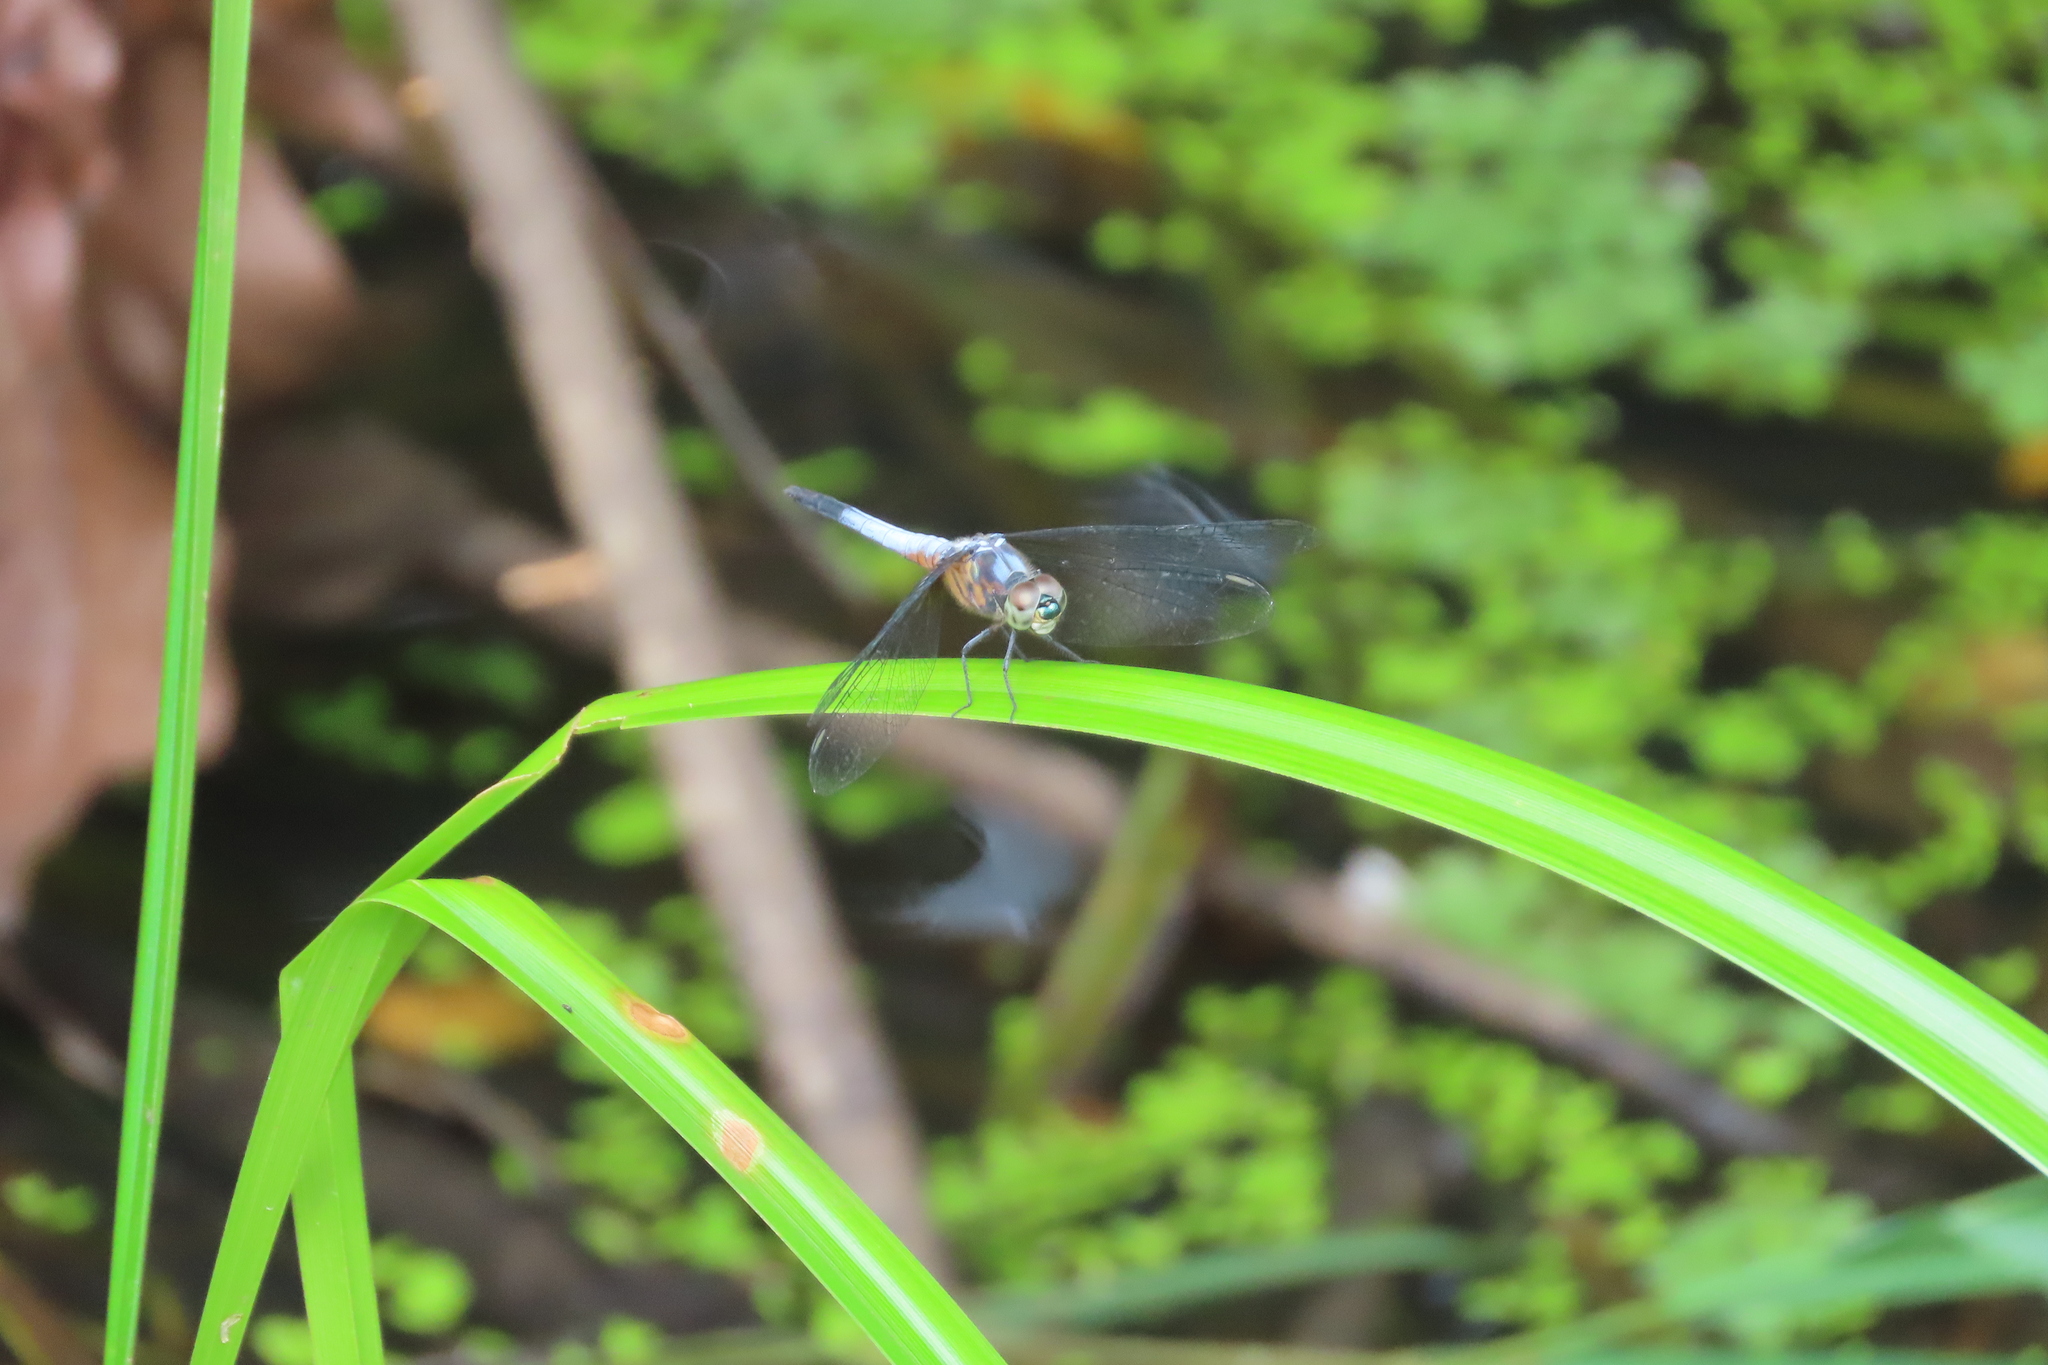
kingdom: Animalia
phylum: Arthropoda
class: Insecta
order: Odonata
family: Libellulidae
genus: Brachydiplax
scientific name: Brachydiplax chalybea
